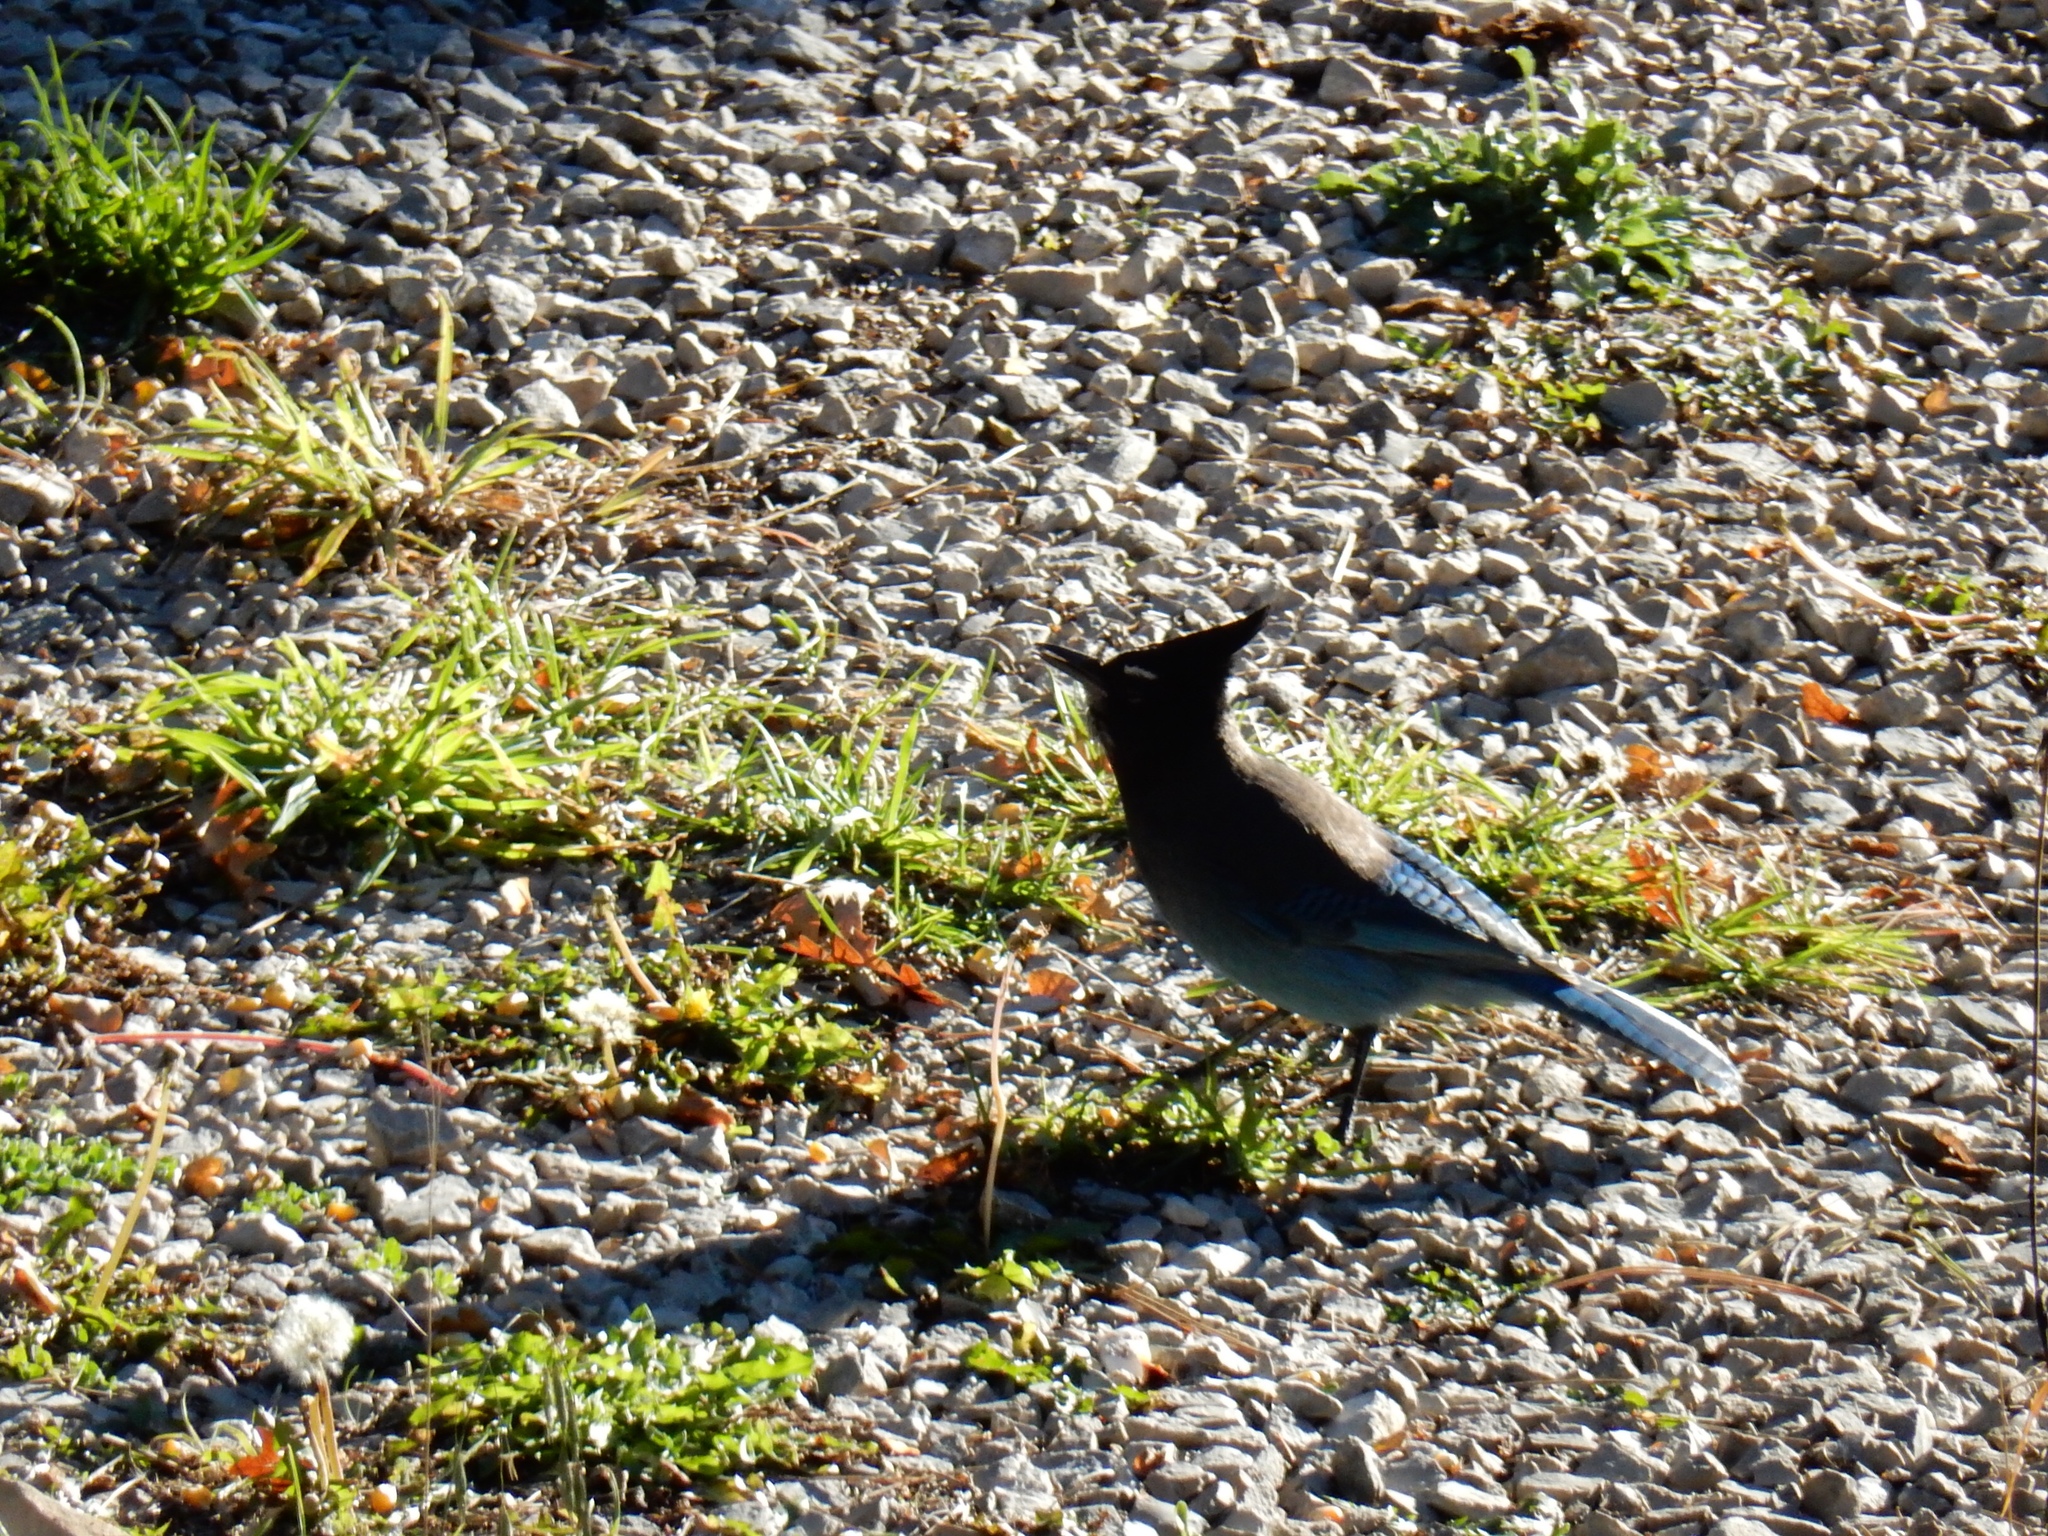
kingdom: Animalia
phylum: Chordata
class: Aves
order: Passeriformes
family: Corvidae
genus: Cyanocitta
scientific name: Cyanocitta stelleri
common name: Steller's jay
